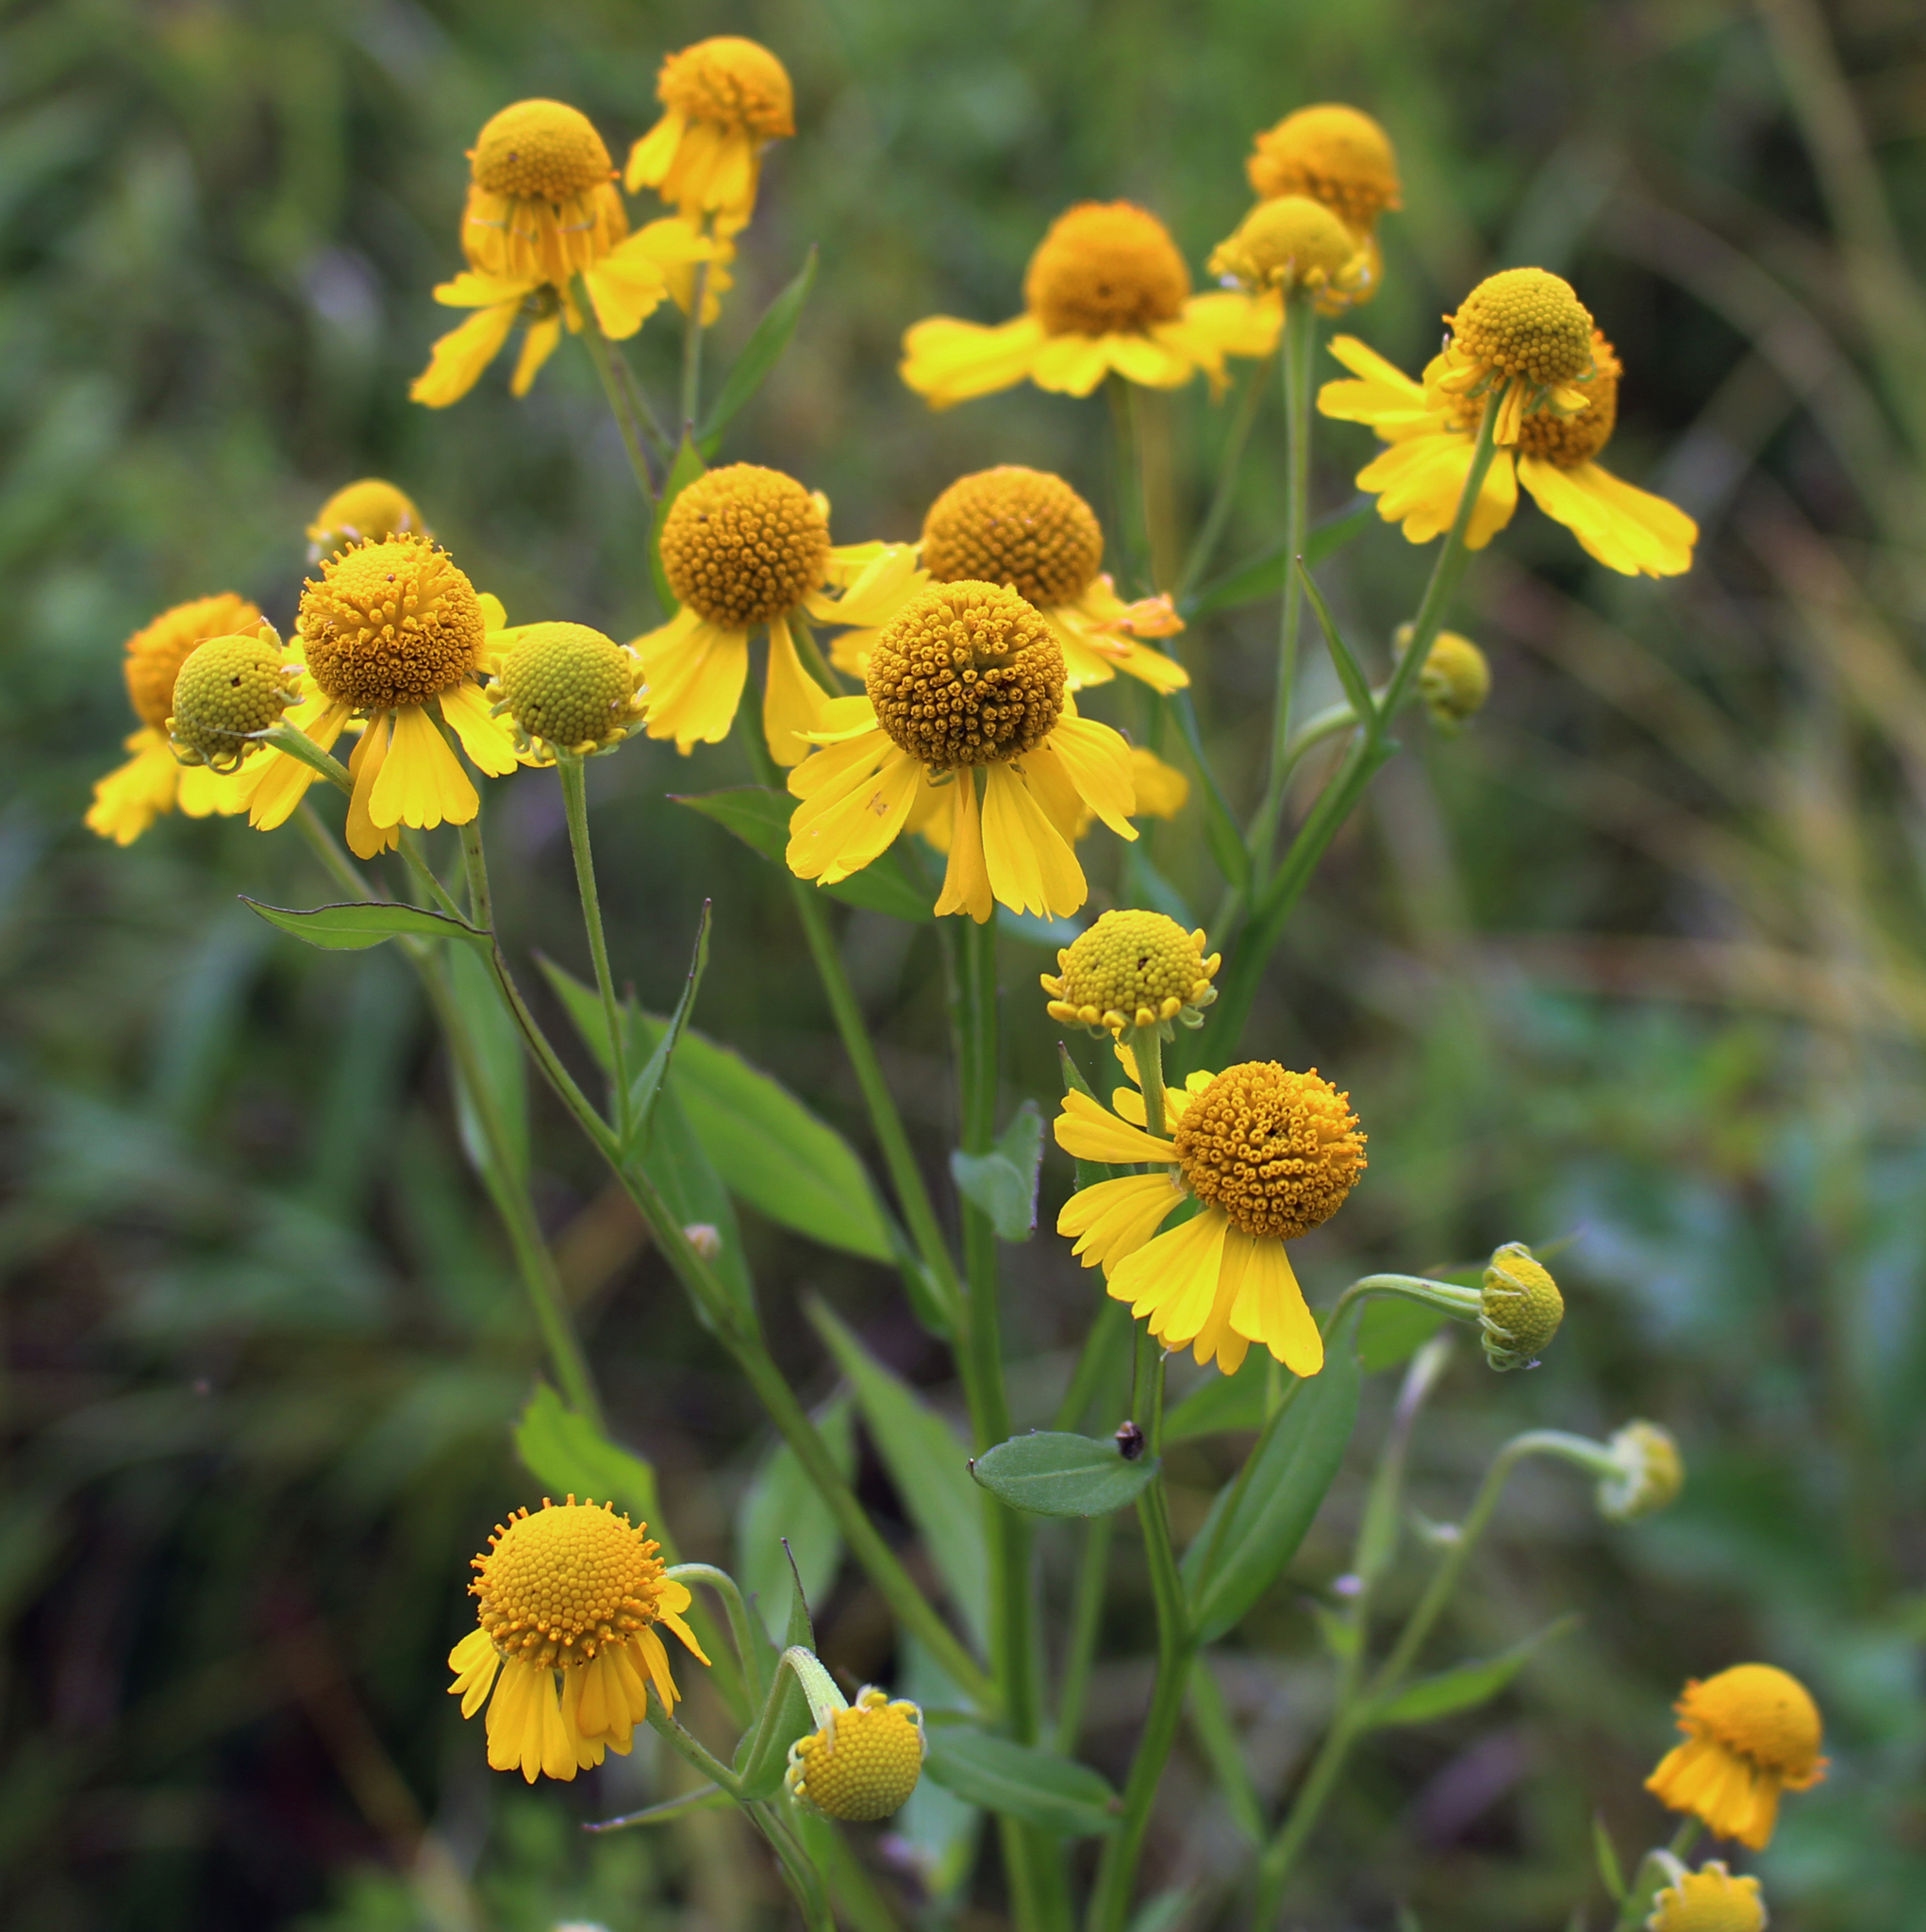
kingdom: Plantae
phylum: Tracheophyta
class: Magnoliopsida
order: Asterales
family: Asteraceae
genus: Helenium
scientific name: Helenium autumnale
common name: Sneezeweed
